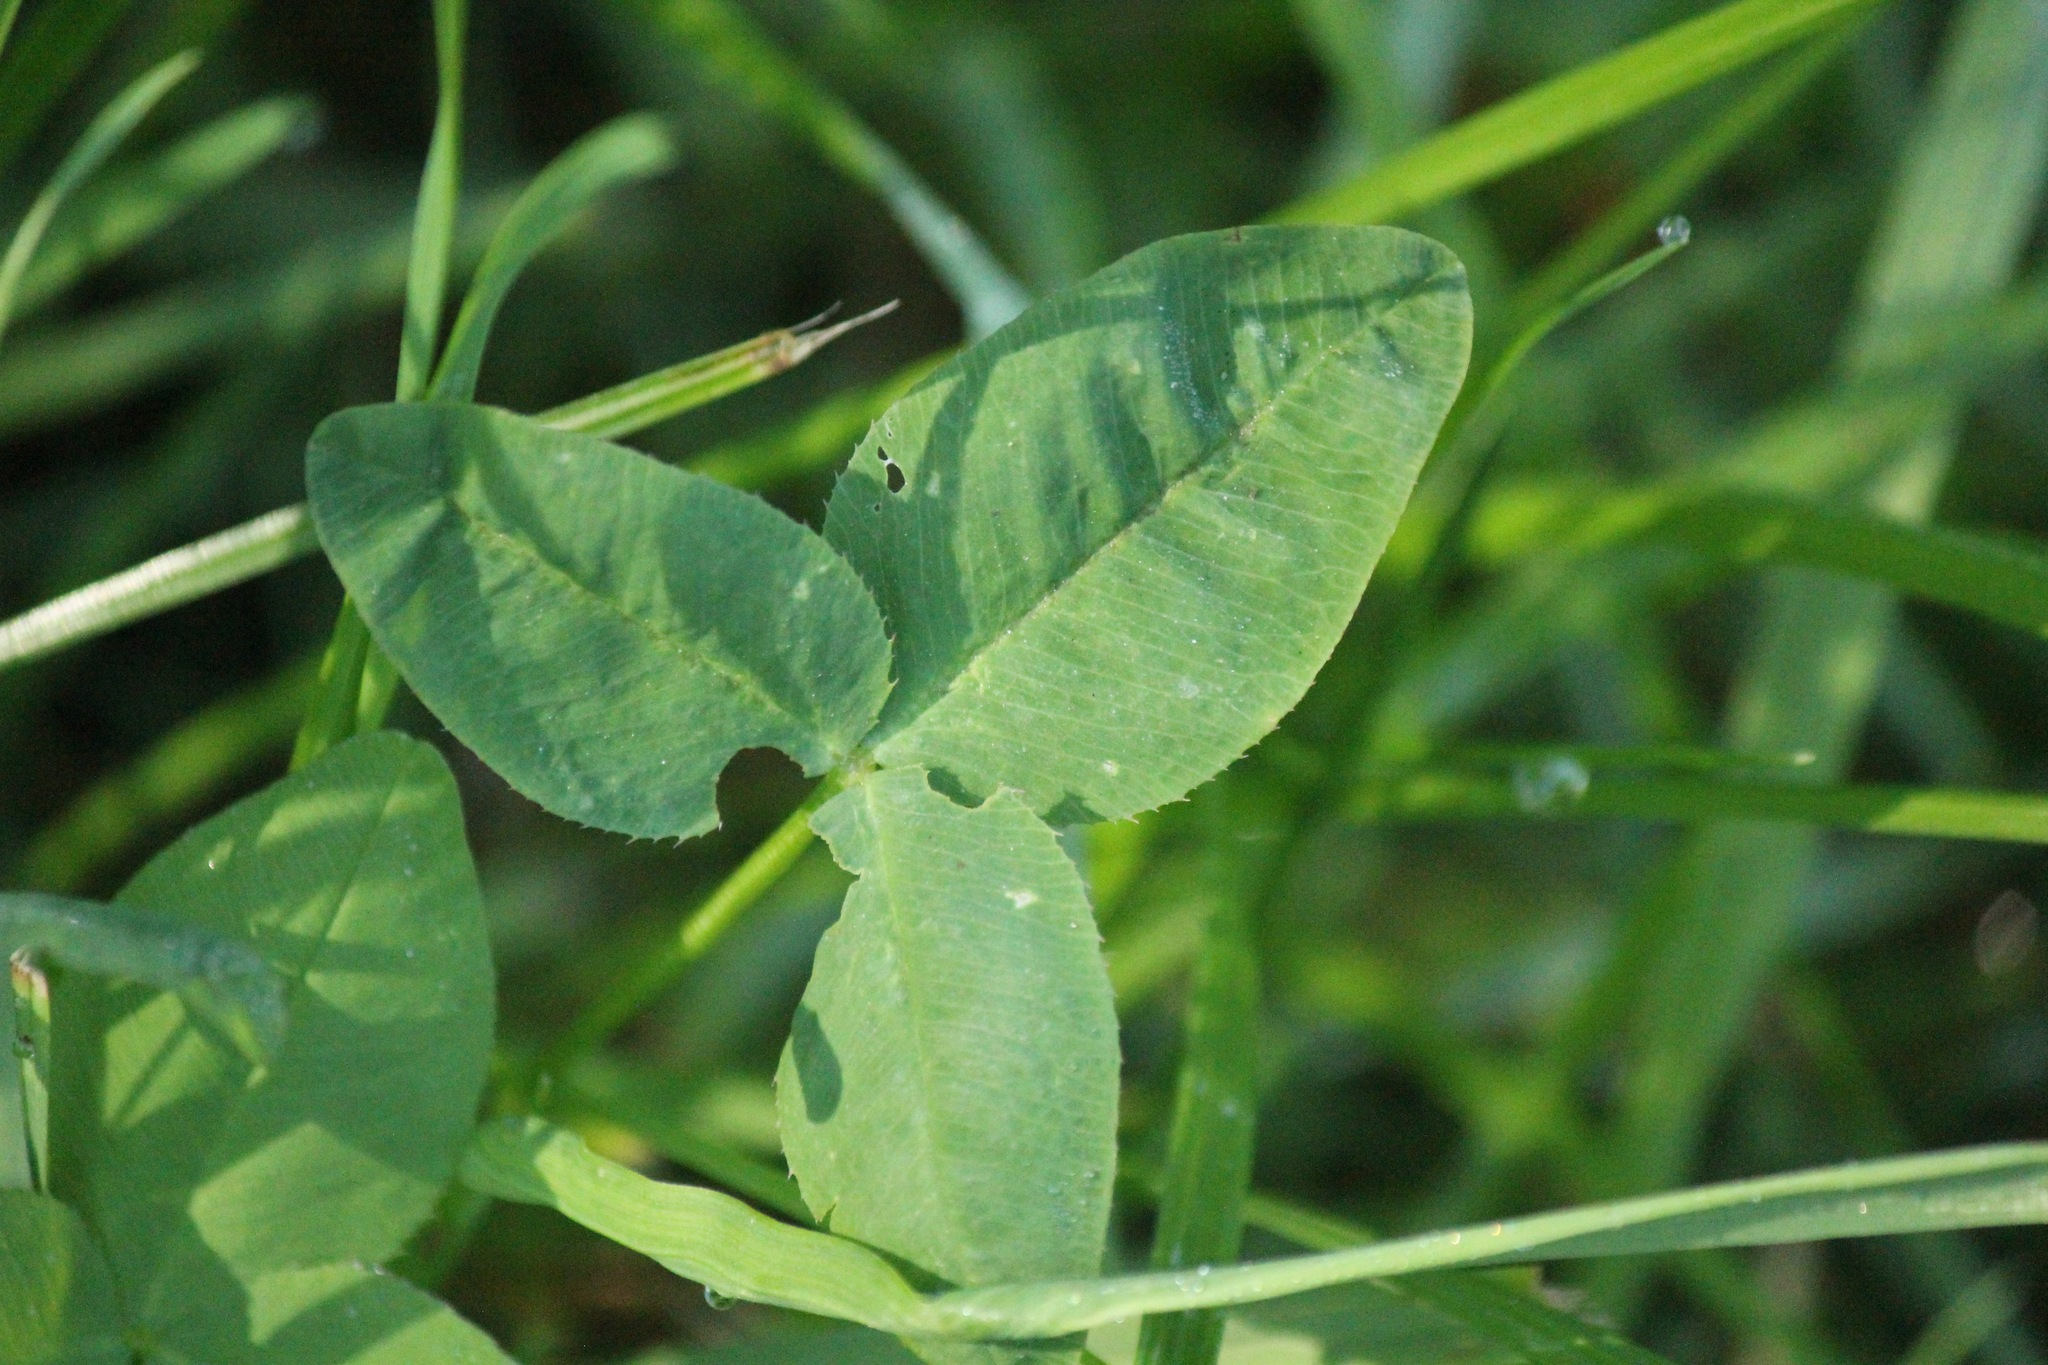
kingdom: Plantae
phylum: Tracheophyta
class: Magnoliopsida
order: Fabales
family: Fabaceae
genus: Trifolium
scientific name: Trifolium hybridum
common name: Alsike clover
